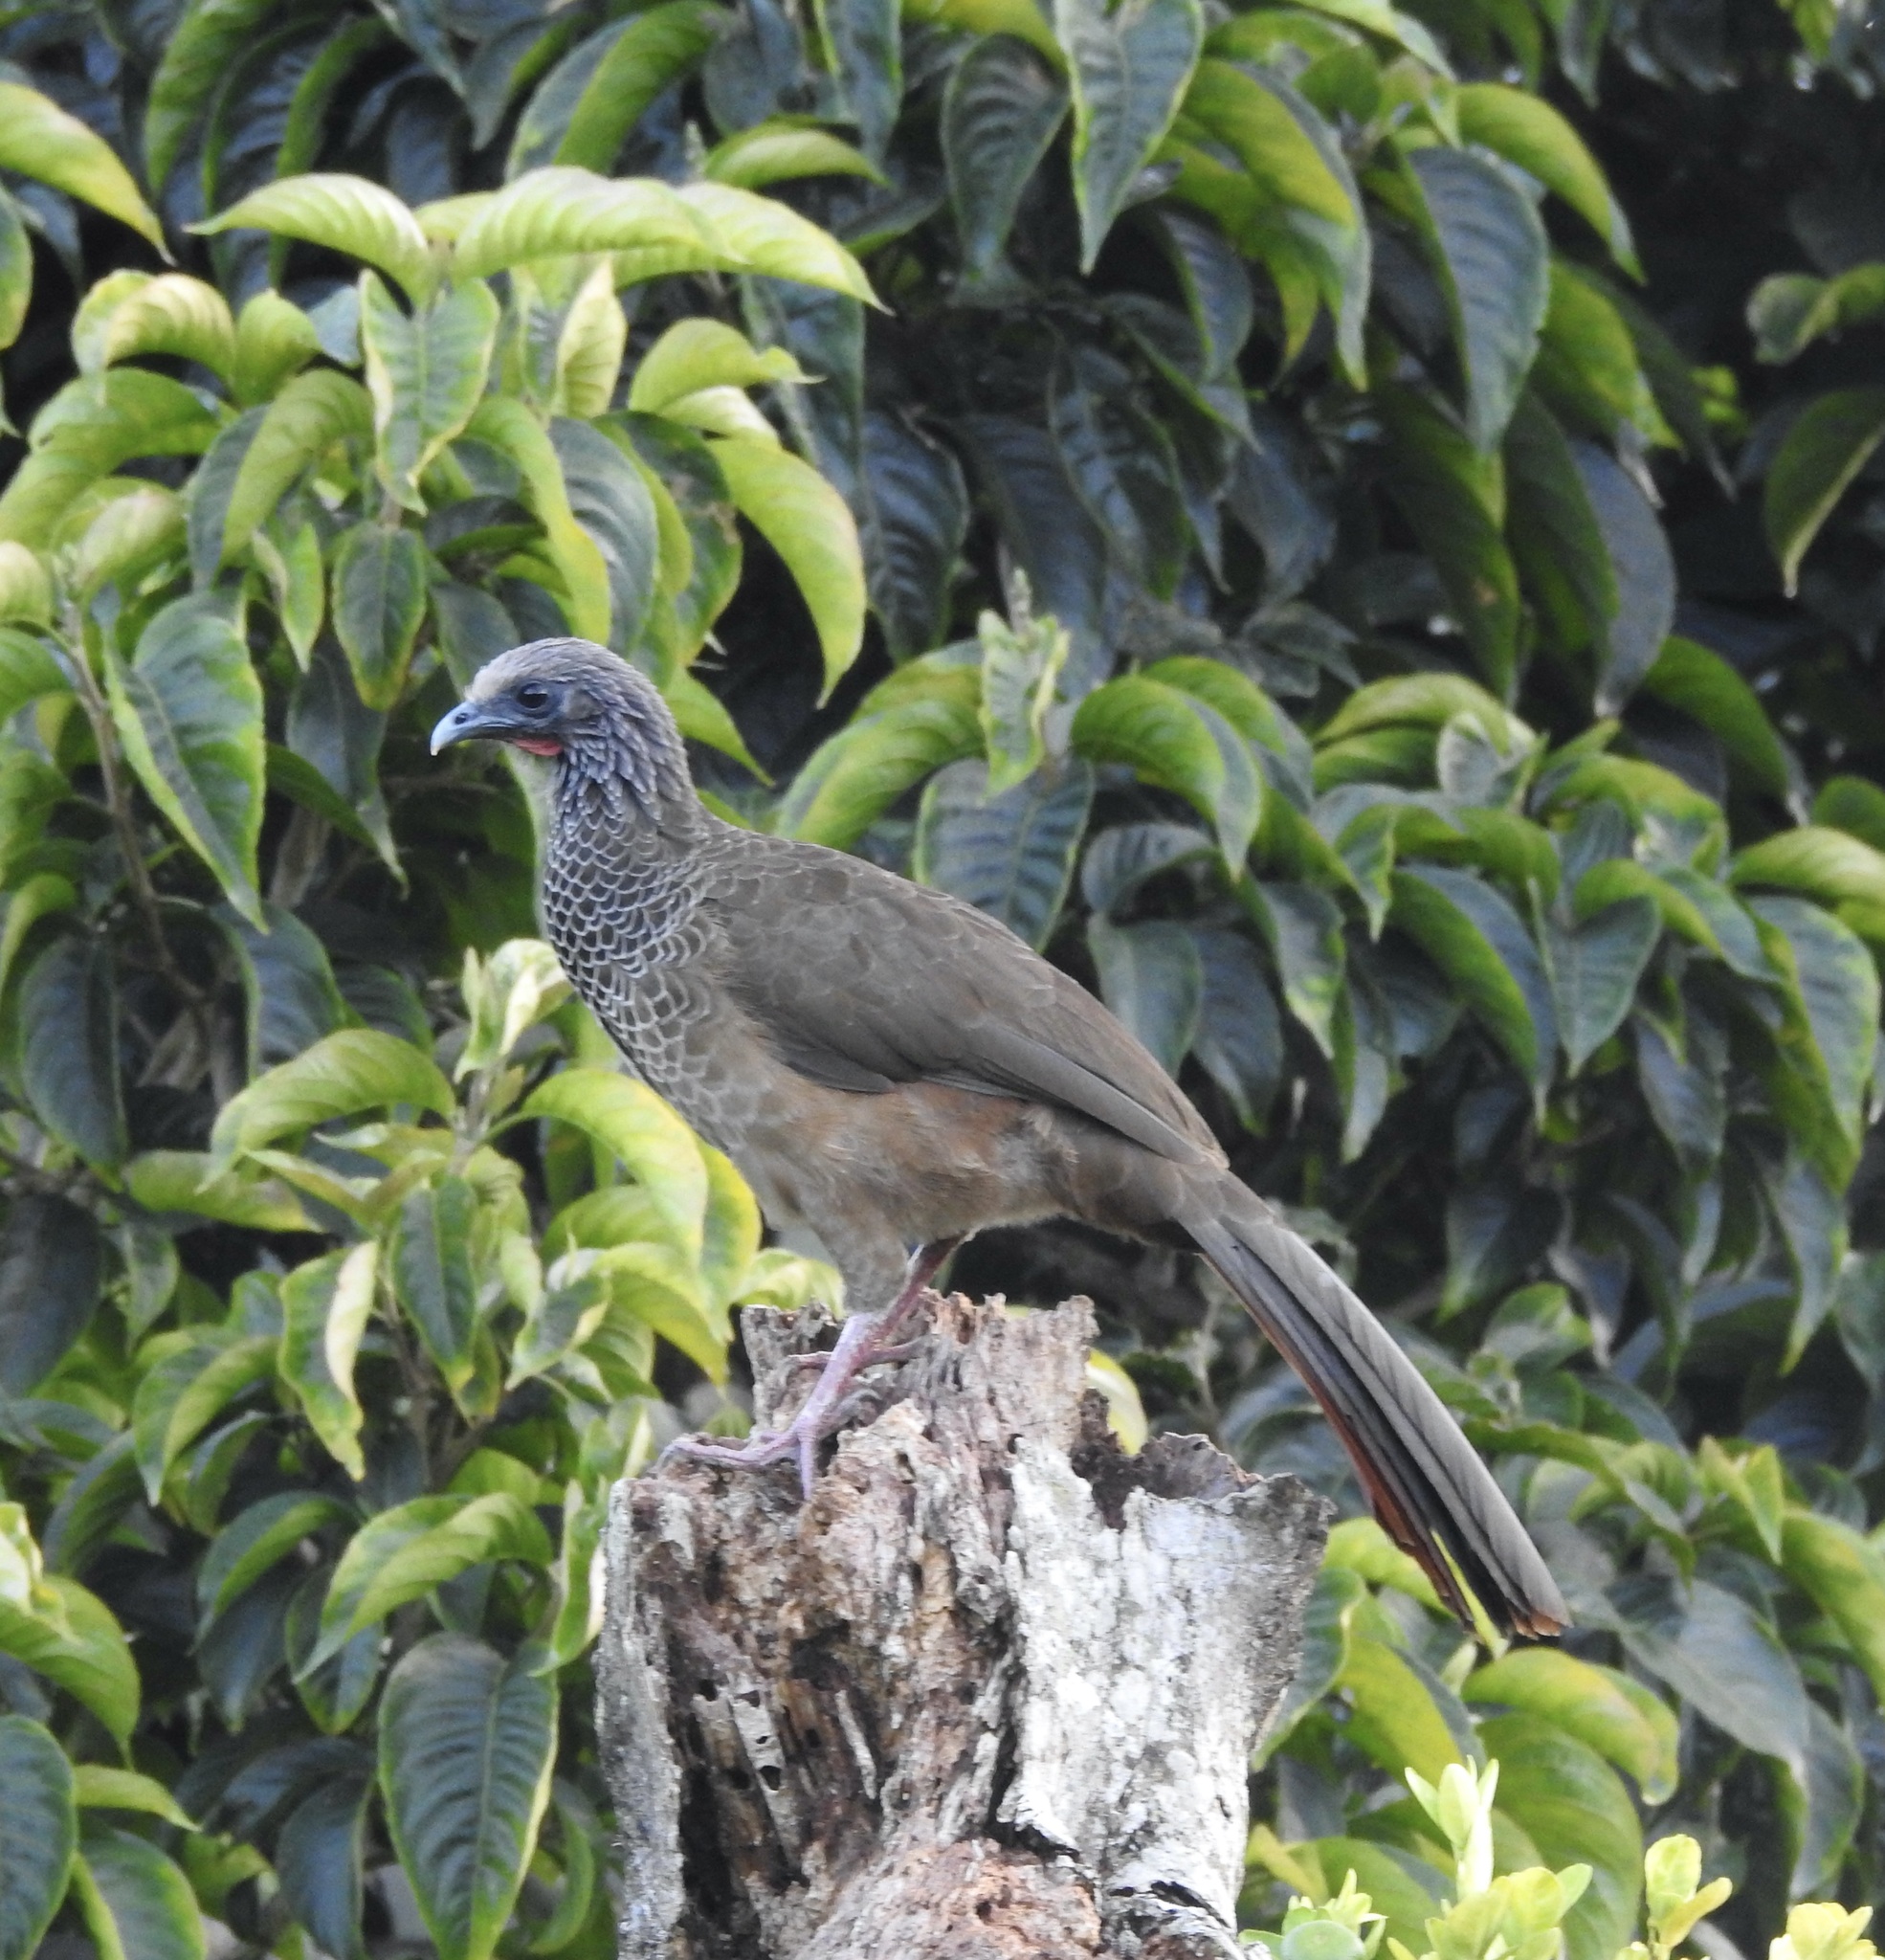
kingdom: Animalia
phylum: Chordata
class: Aves
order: Galliformes
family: Cracidae
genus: Ortalis
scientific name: Ortalis columbiana
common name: Colombian chachalaca
